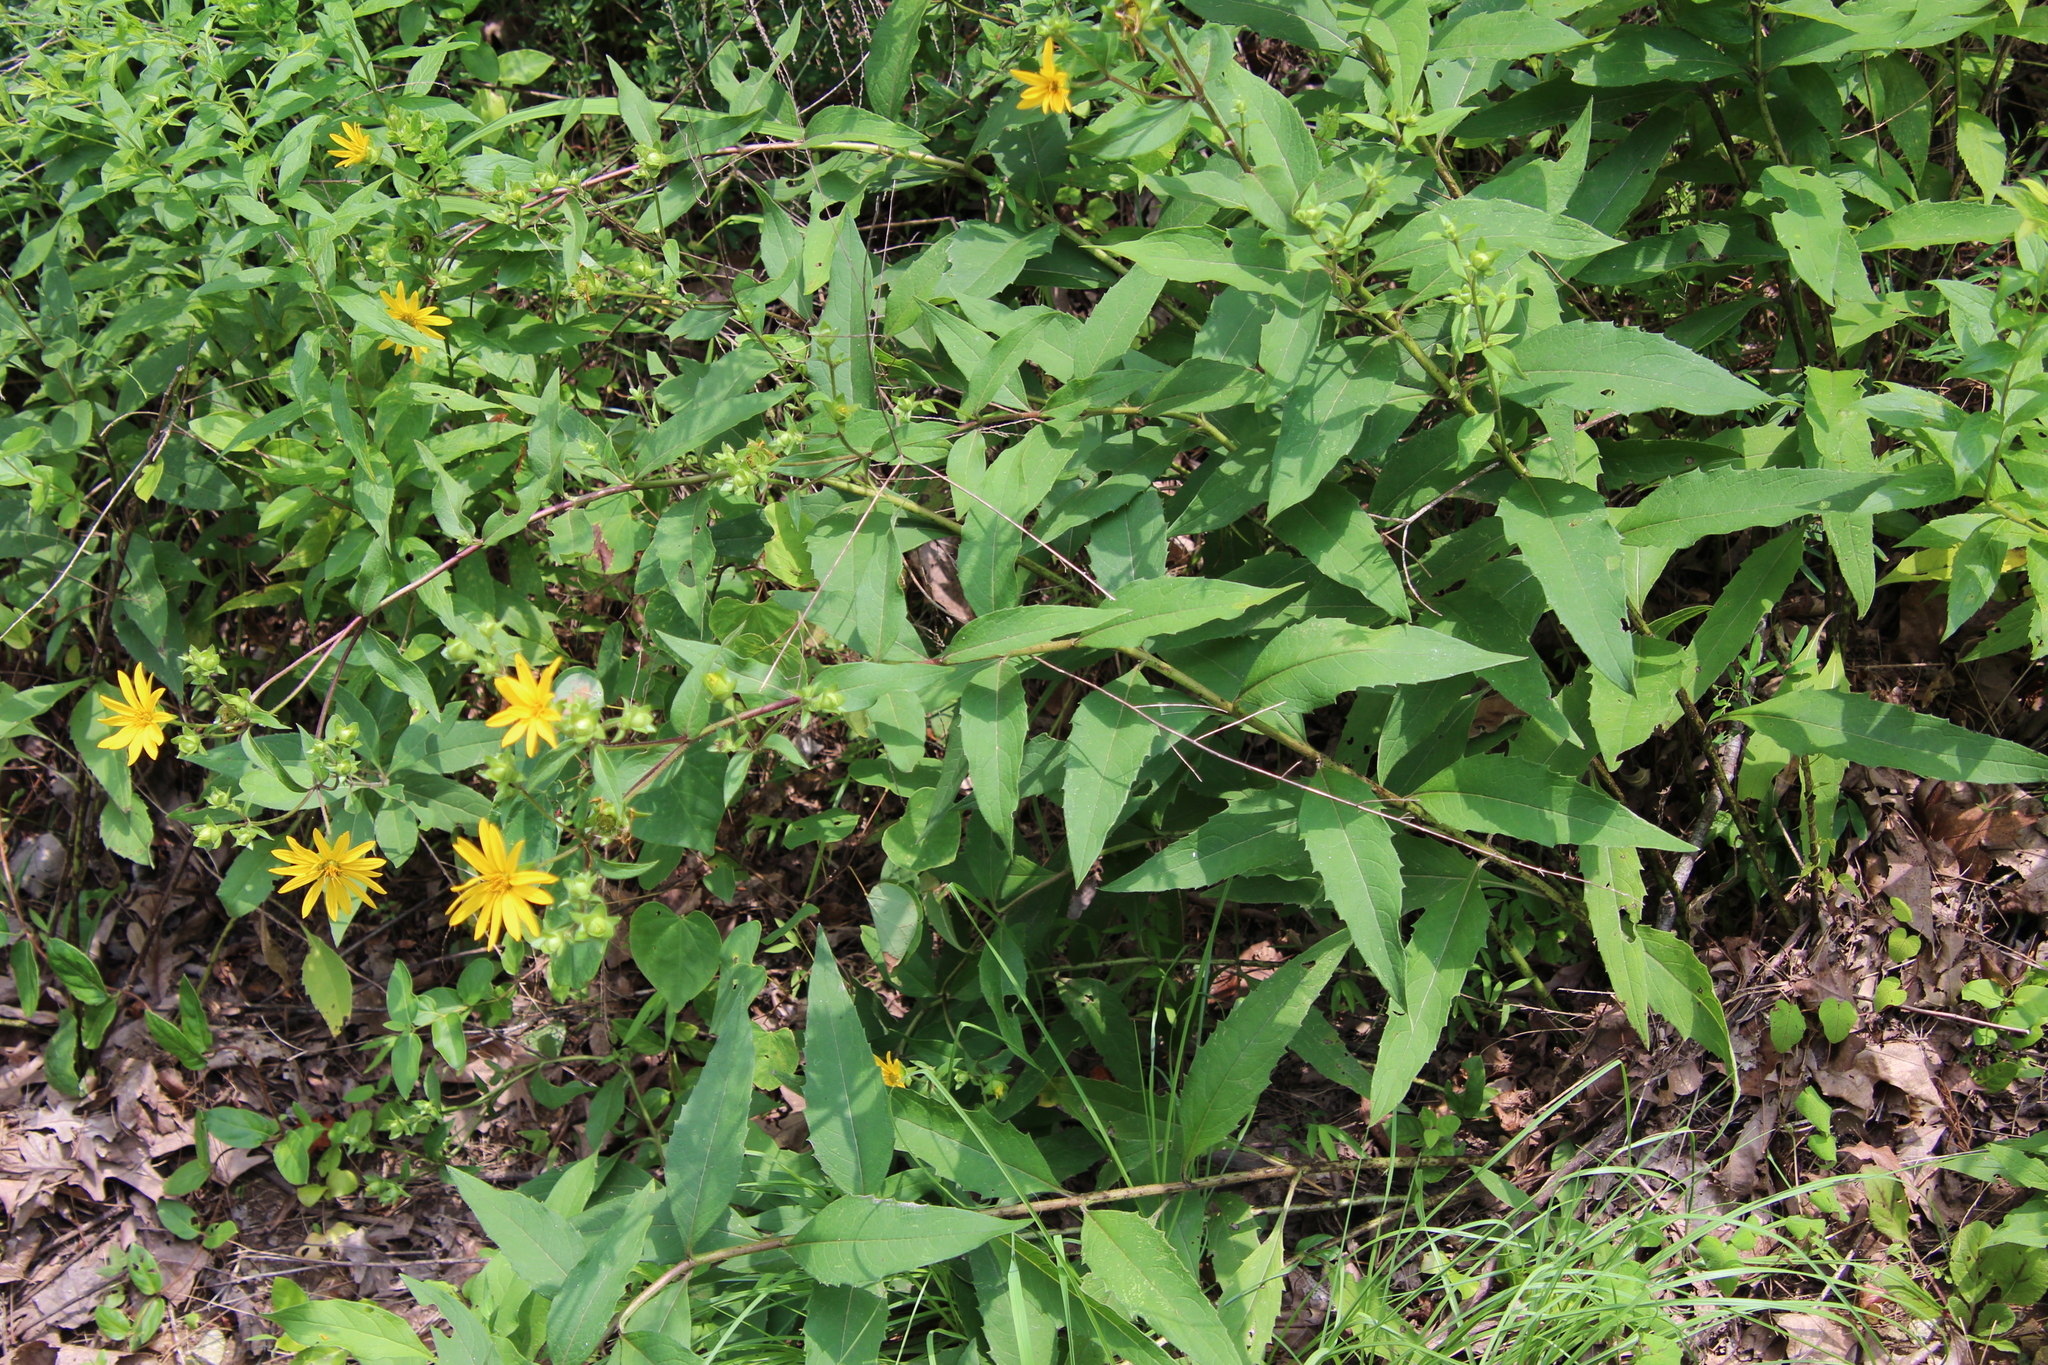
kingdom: Plantae
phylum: Tracheophyta
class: Magnoliopsida
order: Asterales
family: Asteraceae
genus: Silphium
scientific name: Silphium asteriscus
